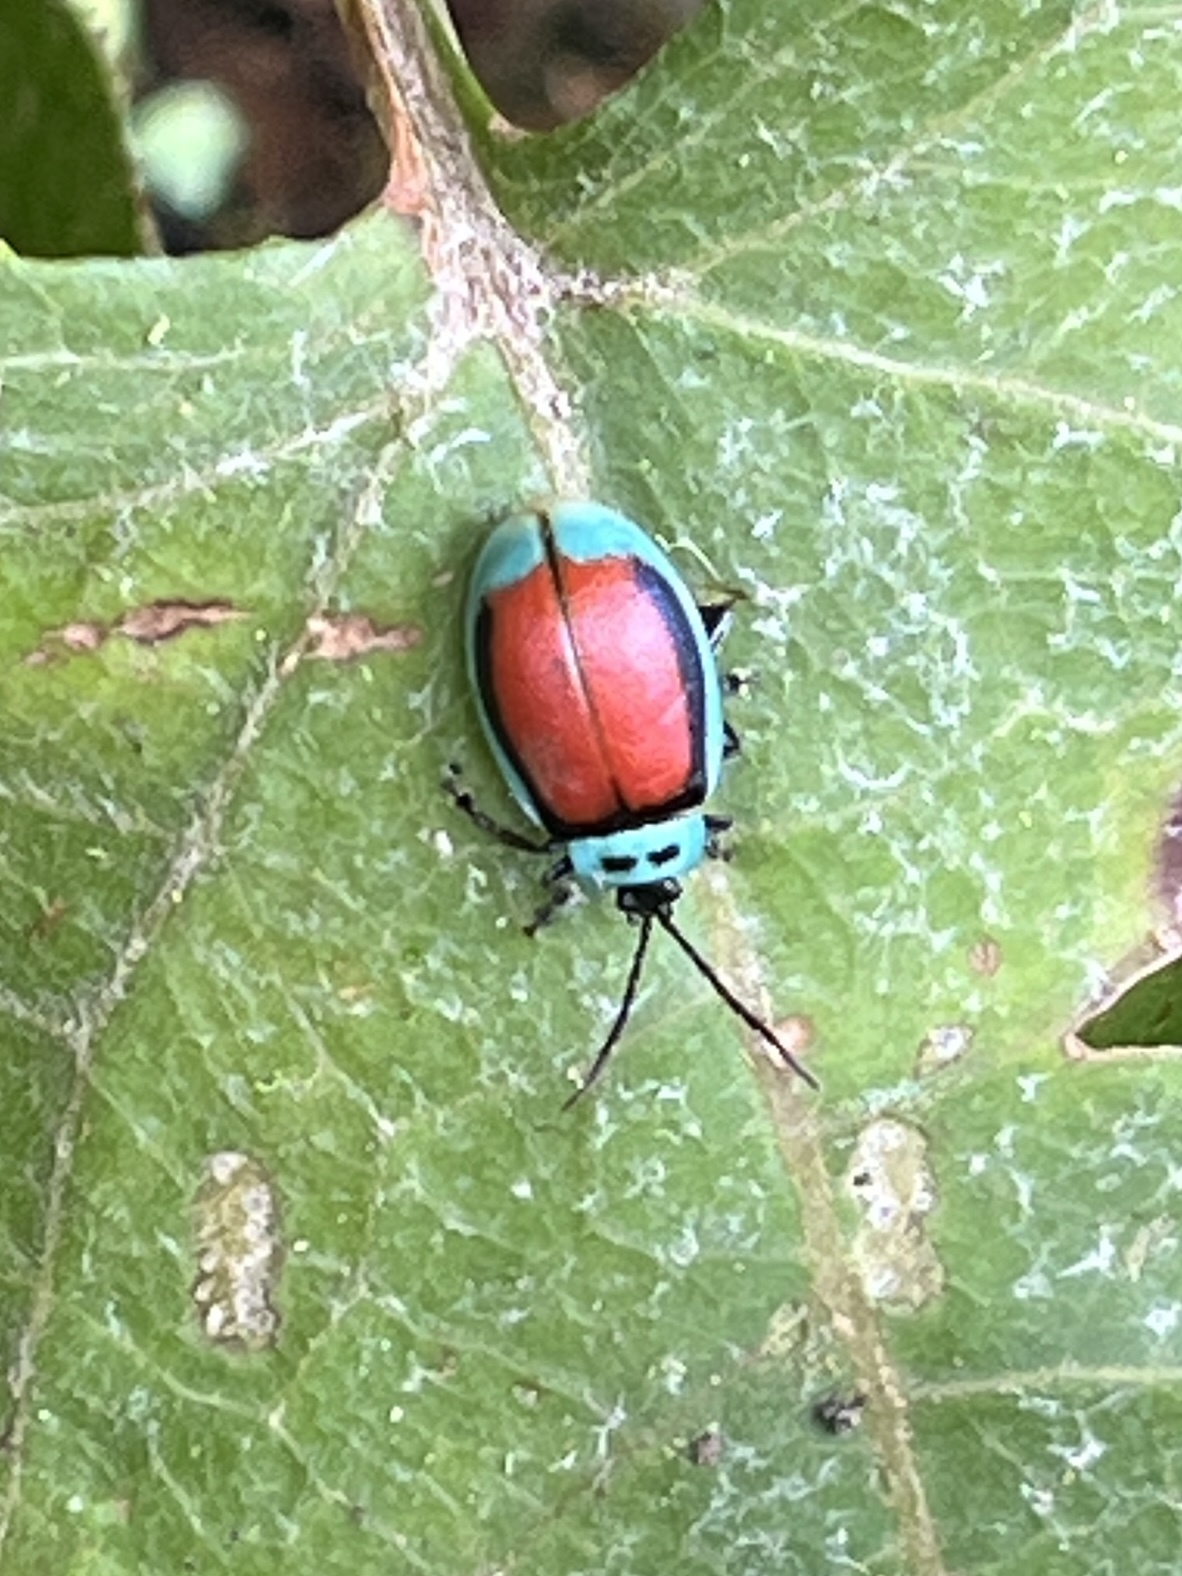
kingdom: Animalia
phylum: Arthropoda
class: Insecta
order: Coleoptera
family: Chrysomelidae
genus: Aspicela
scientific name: Aspicela
